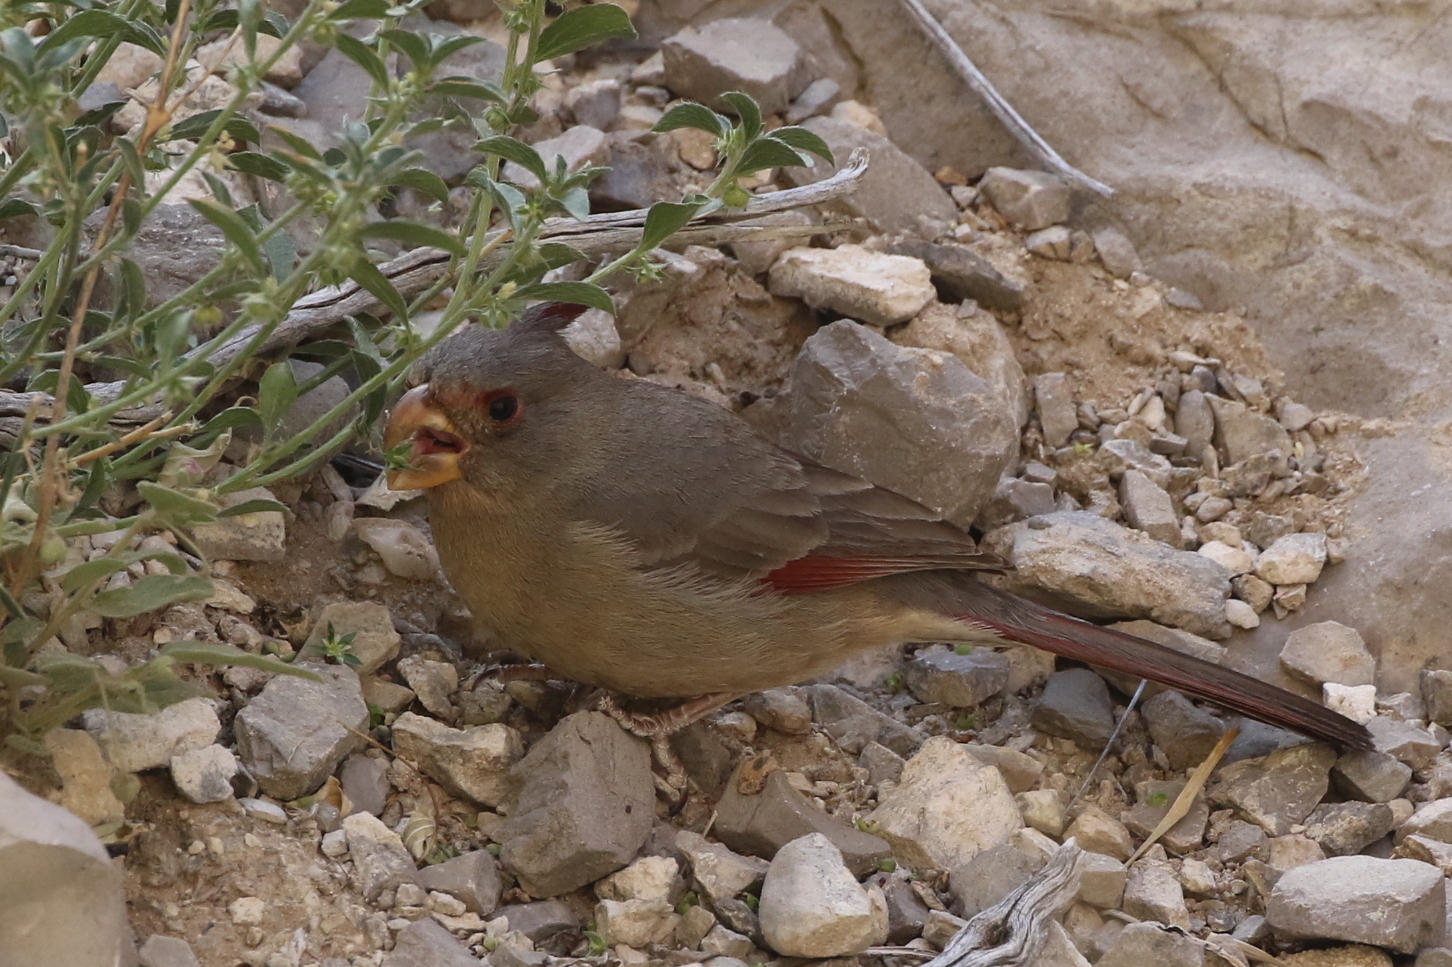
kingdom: Animalia
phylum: Chordata
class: Aves
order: Passeriformes
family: Cardinalidae
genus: Cardinalis
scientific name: Cardinalis sinuatus
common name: Pyrrhuloxia
